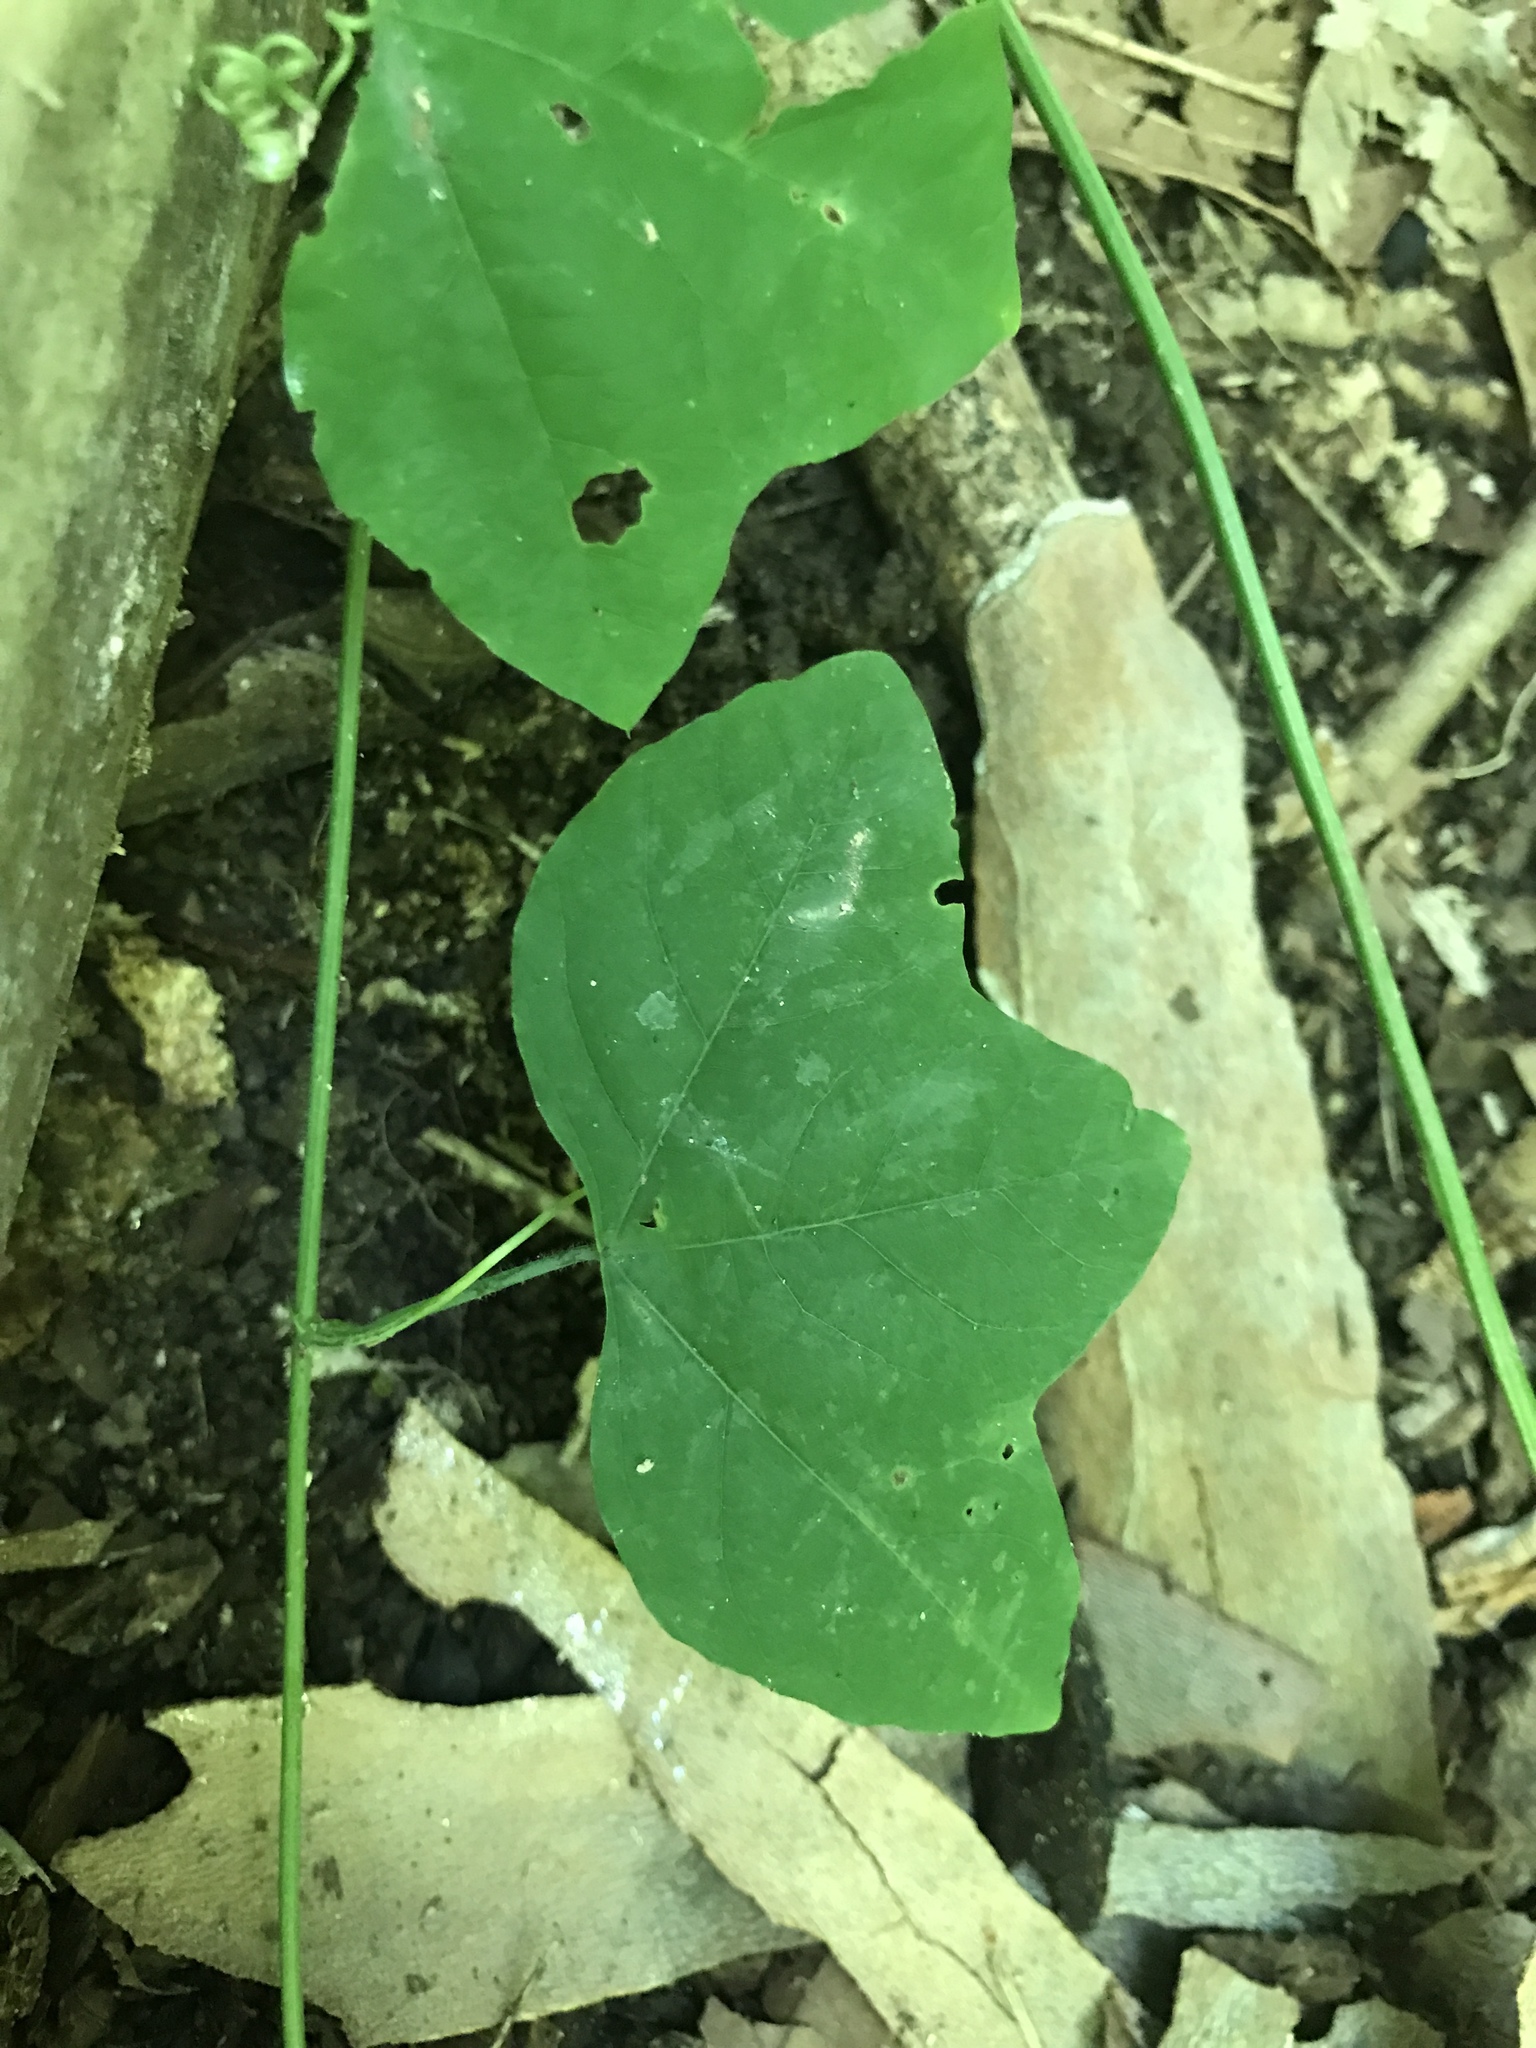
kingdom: Plantae
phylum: Tracheophyta
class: Magnoliopsida
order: Malpighiales
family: Passifloraceae
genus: Passiflora
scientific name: Passiflora lutea
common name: Yellow passionflower
